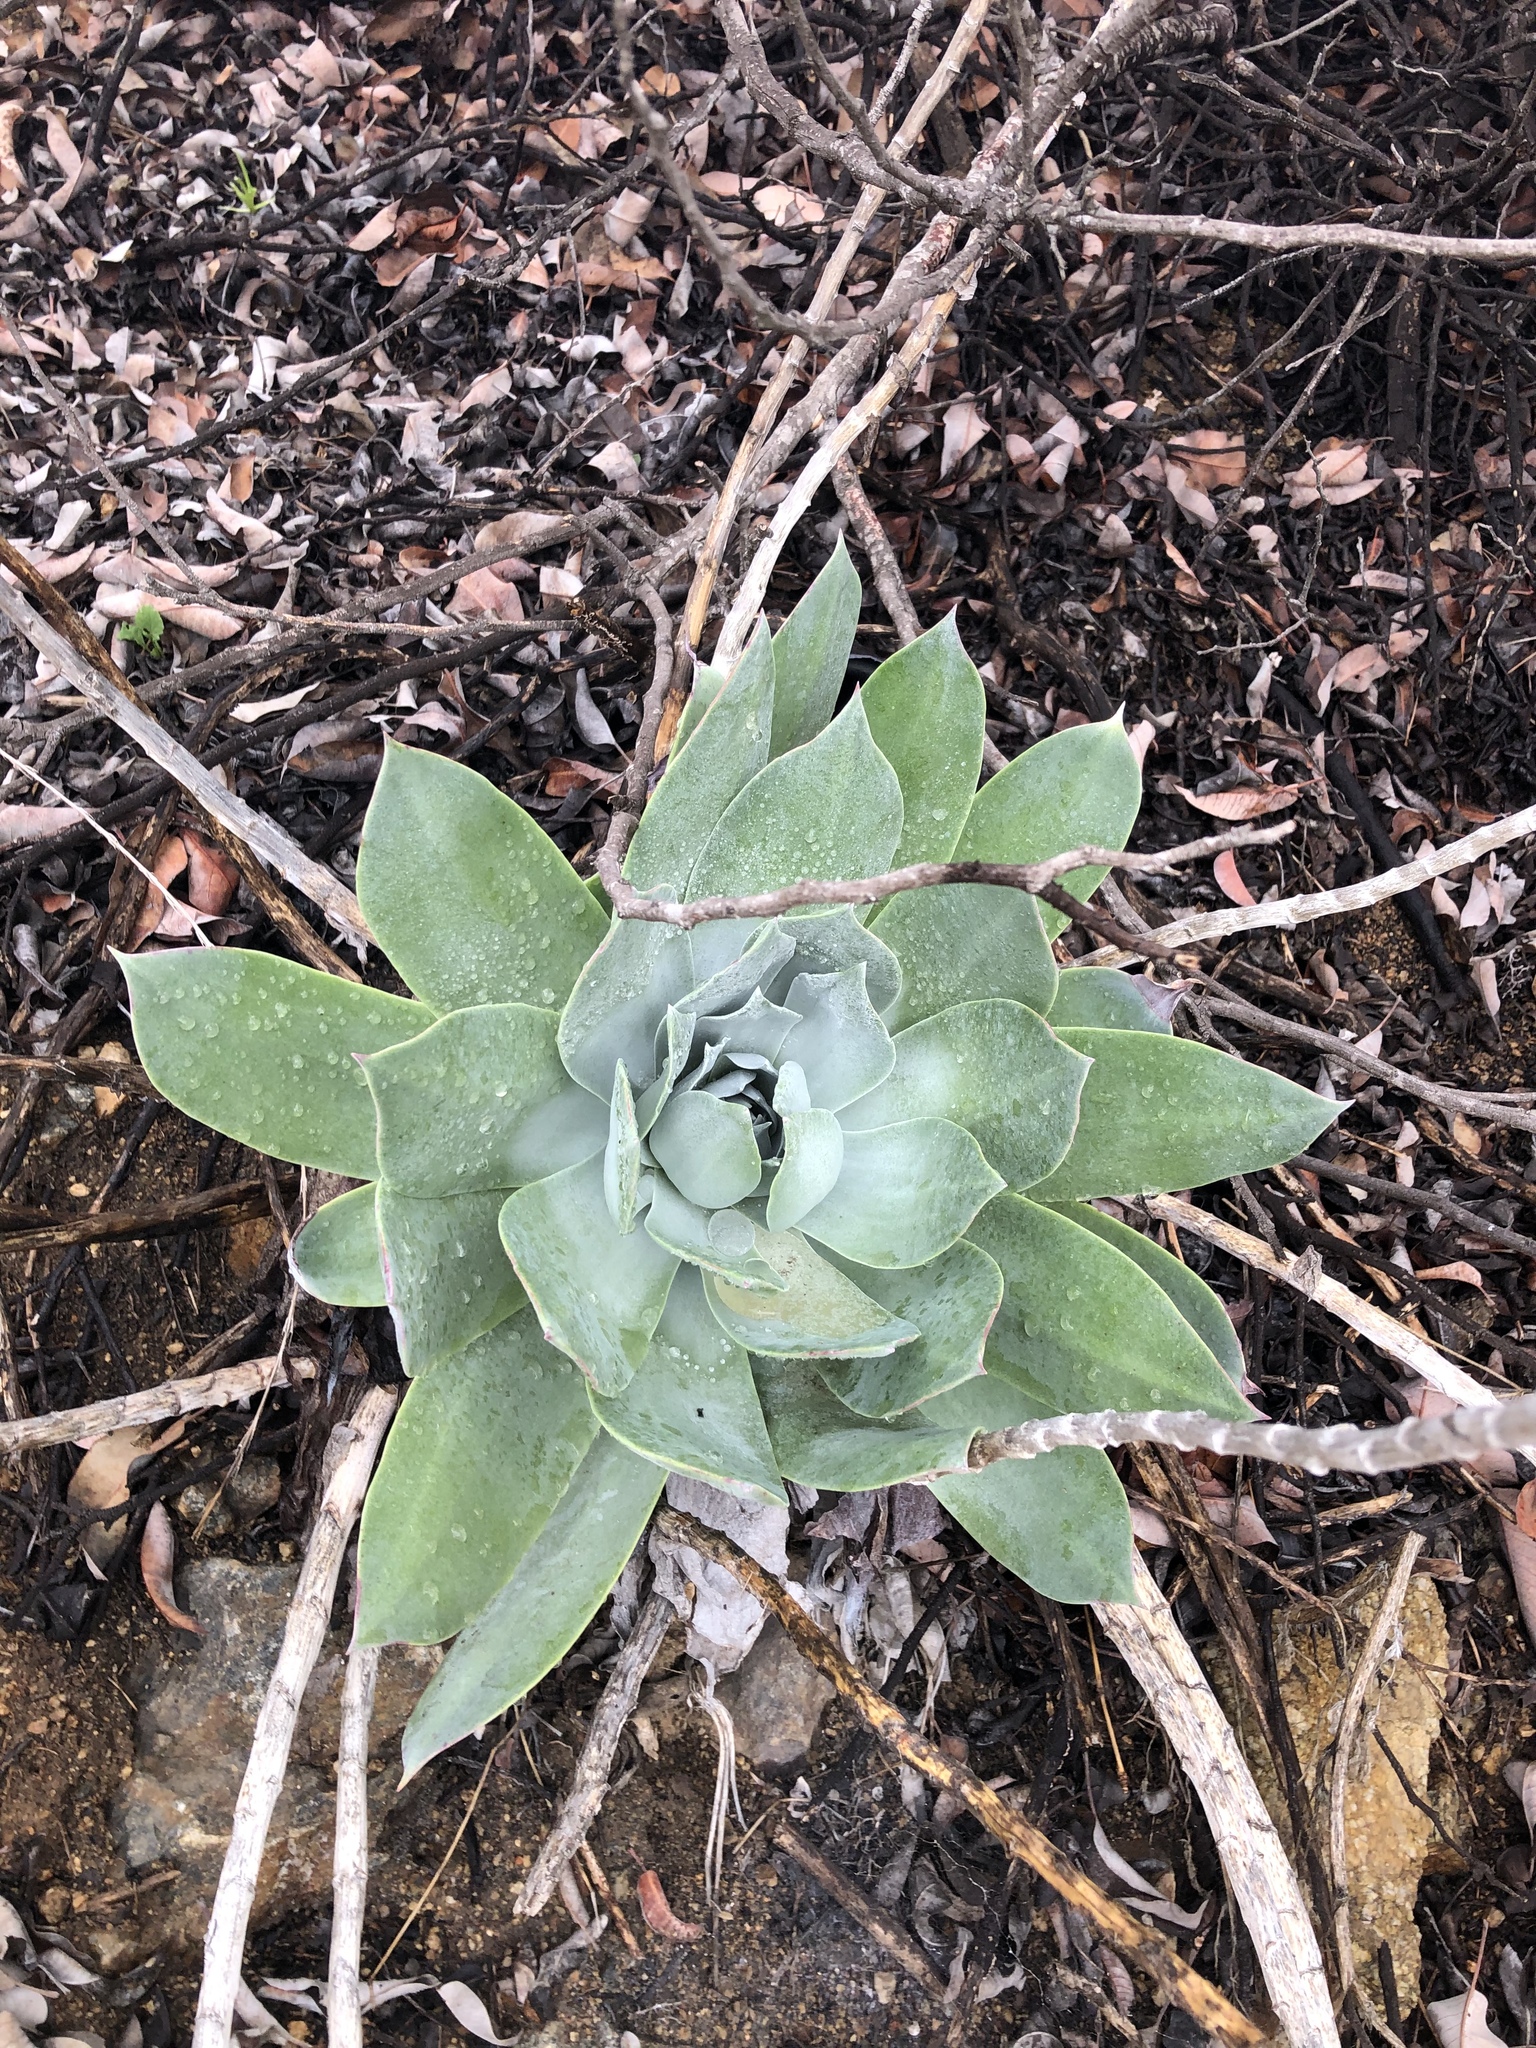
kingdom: Plantae
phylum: Tracheophyta
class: Magnoliopsida
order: Saxifragales
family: Crassulaceae
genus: Dudleya
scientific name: Dudleya pulverulenta
